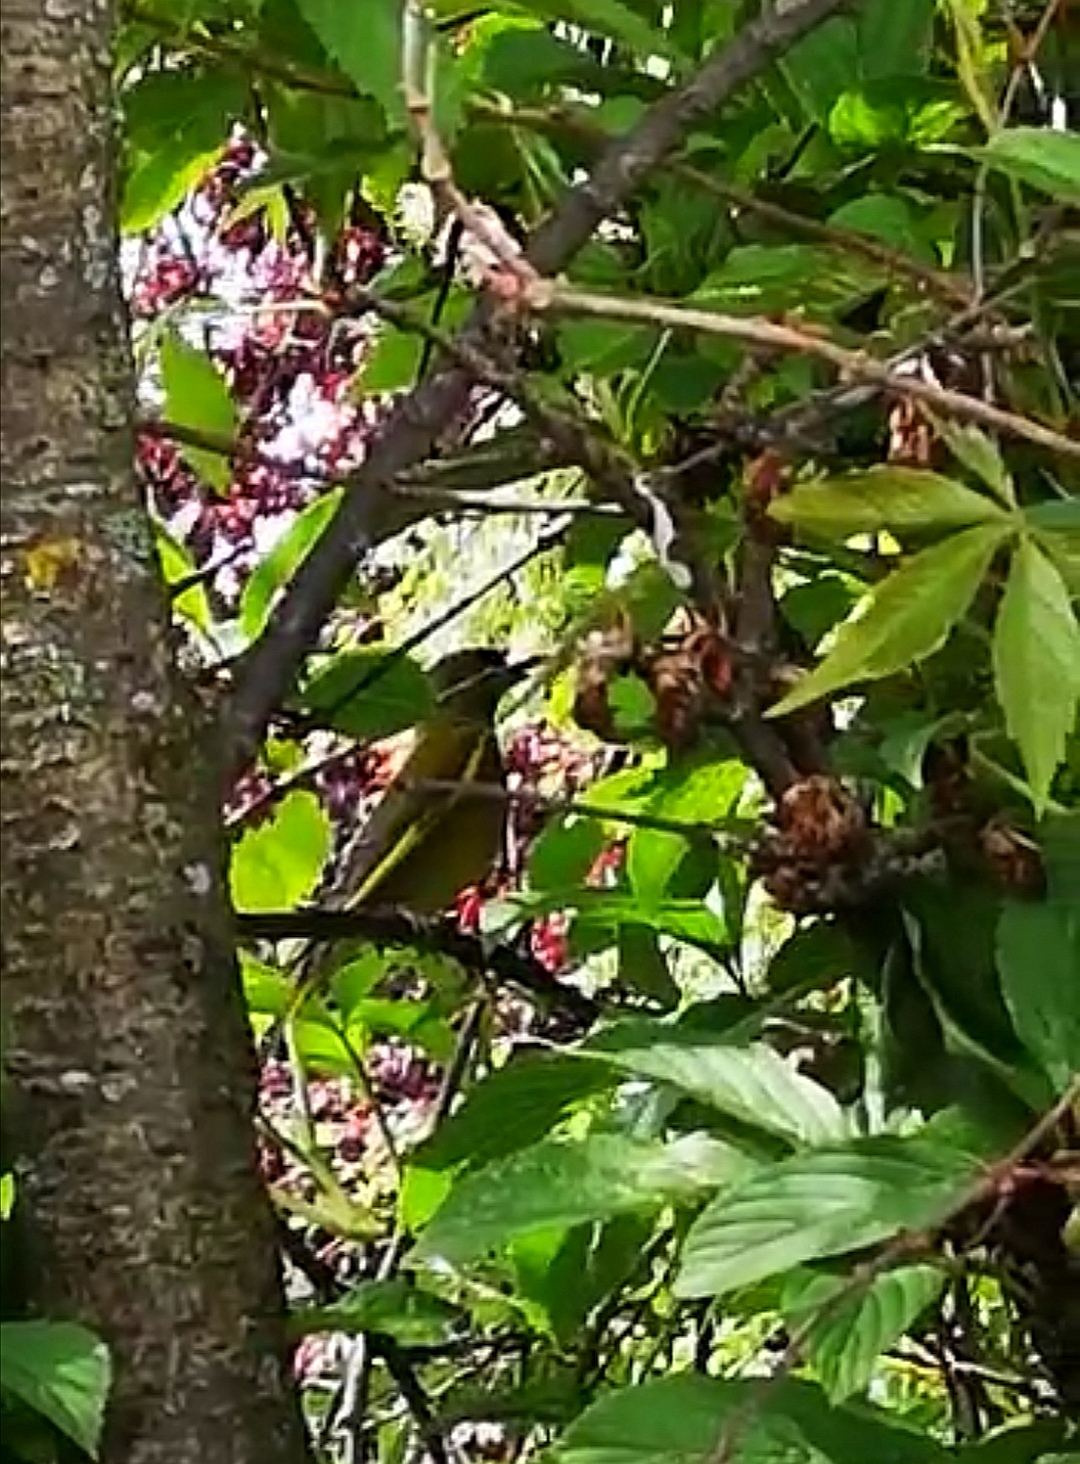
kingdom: Plantae
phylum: Tracheophyta
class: Liliopsida
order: Poales
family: Poaceae
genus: Chloris
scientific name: Chloris chloris
